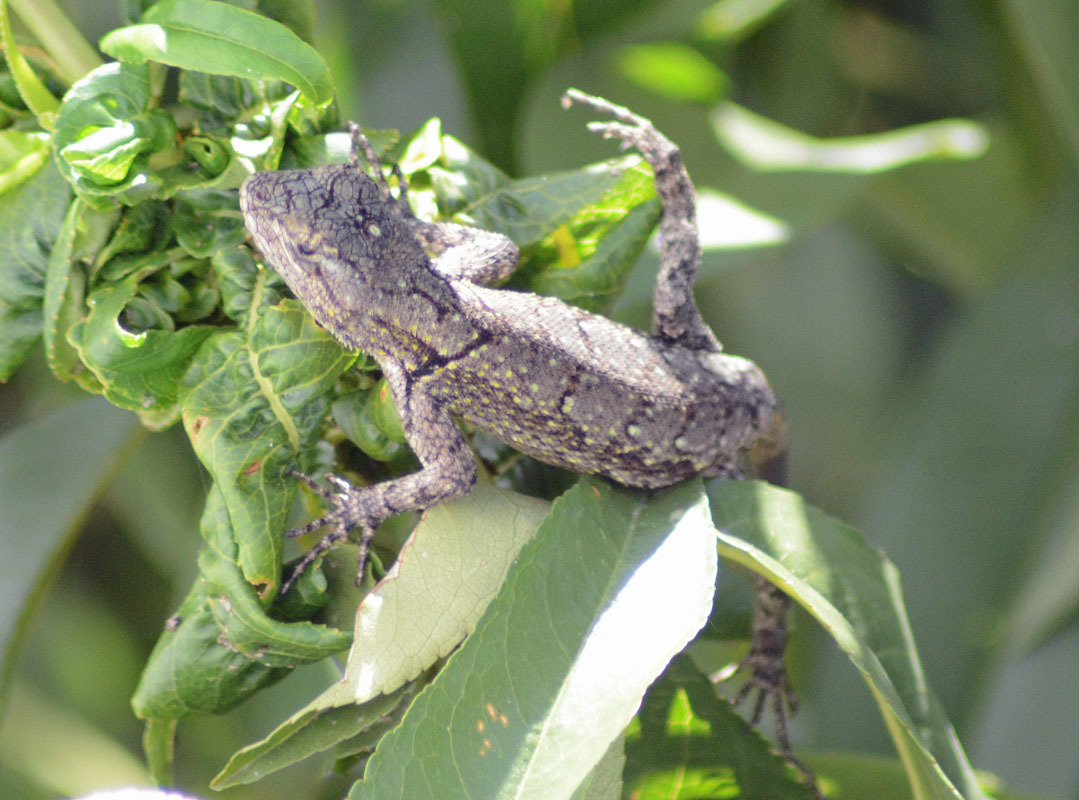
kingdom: Animalia
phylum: Chordata
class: Squamata
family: Phrynosomatidae
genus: Sceloporus
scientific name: Sceloporus grammicus
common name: Mesquite lizard
